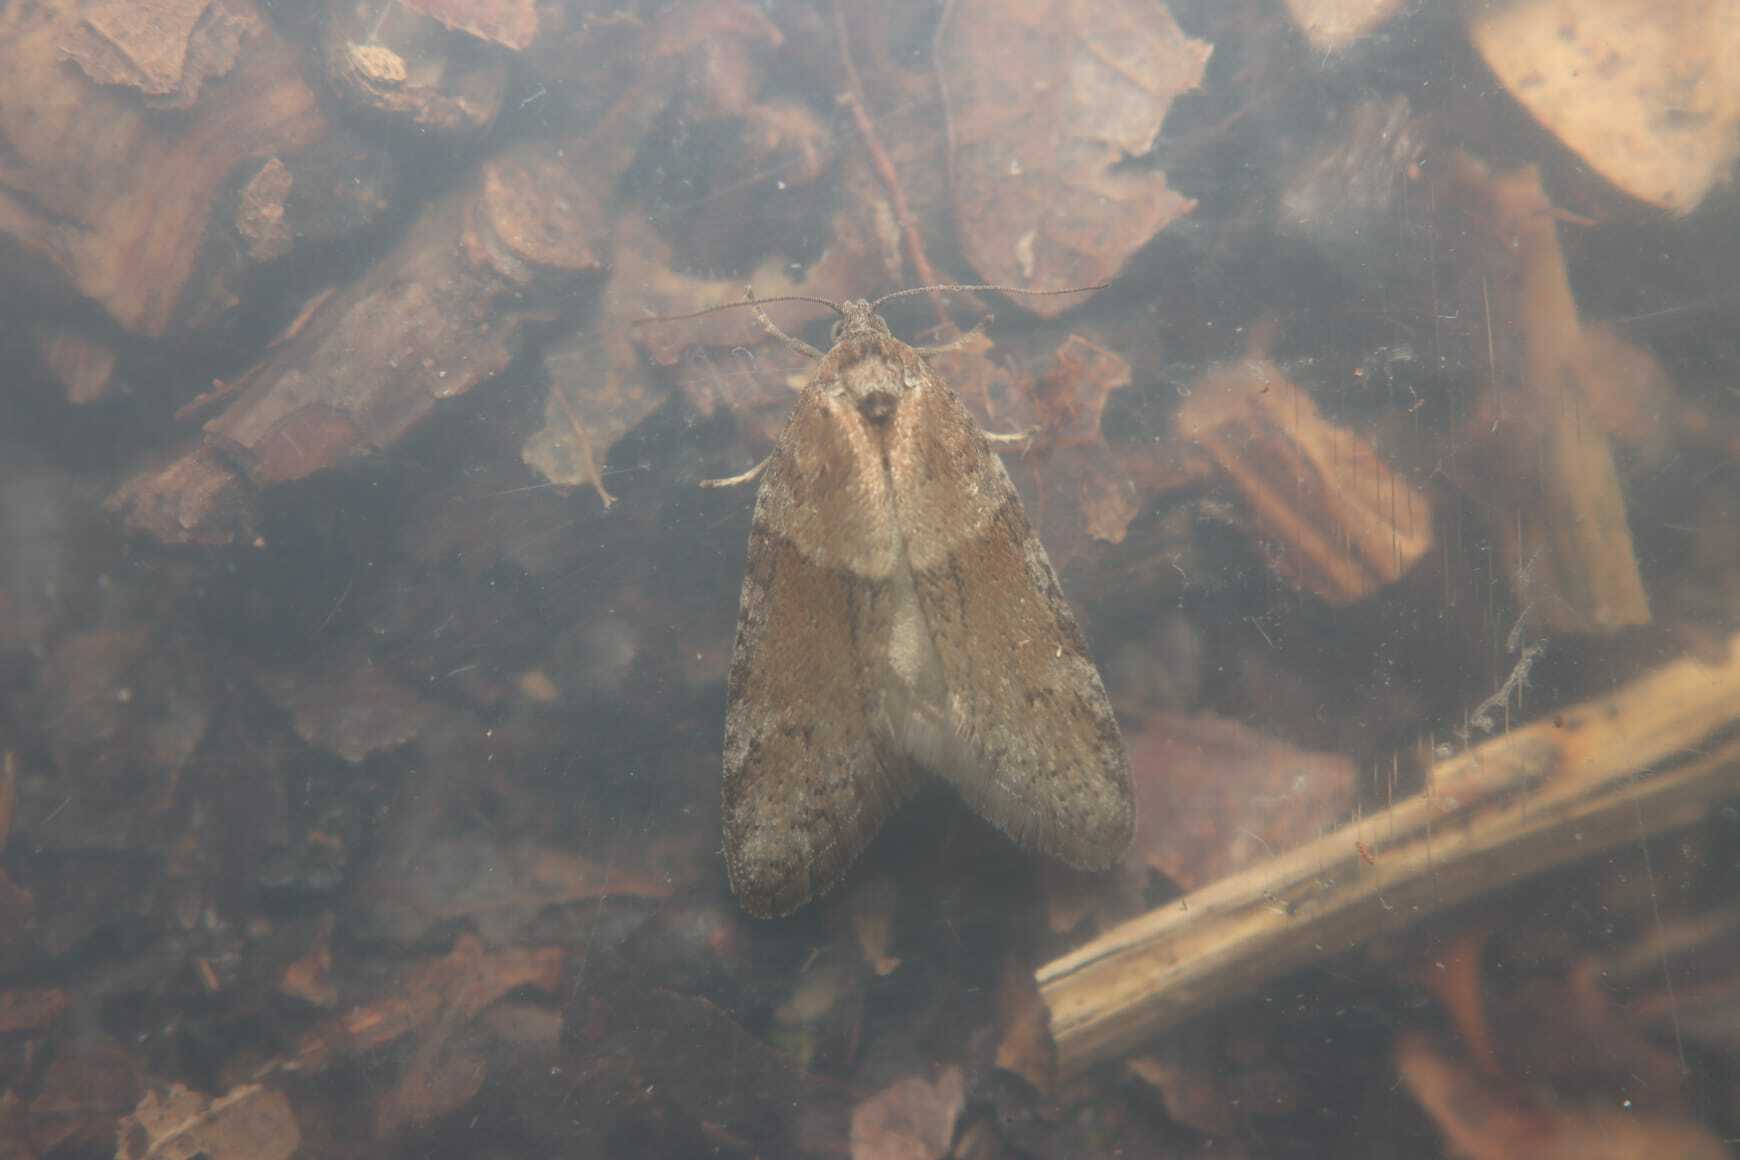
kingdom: Animalia
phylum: Arthropoda
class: Insecta
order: Lepidoptera
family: Tortricidae
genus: Tortricodes
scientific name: Tortricodes alternella
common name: Winter shade
